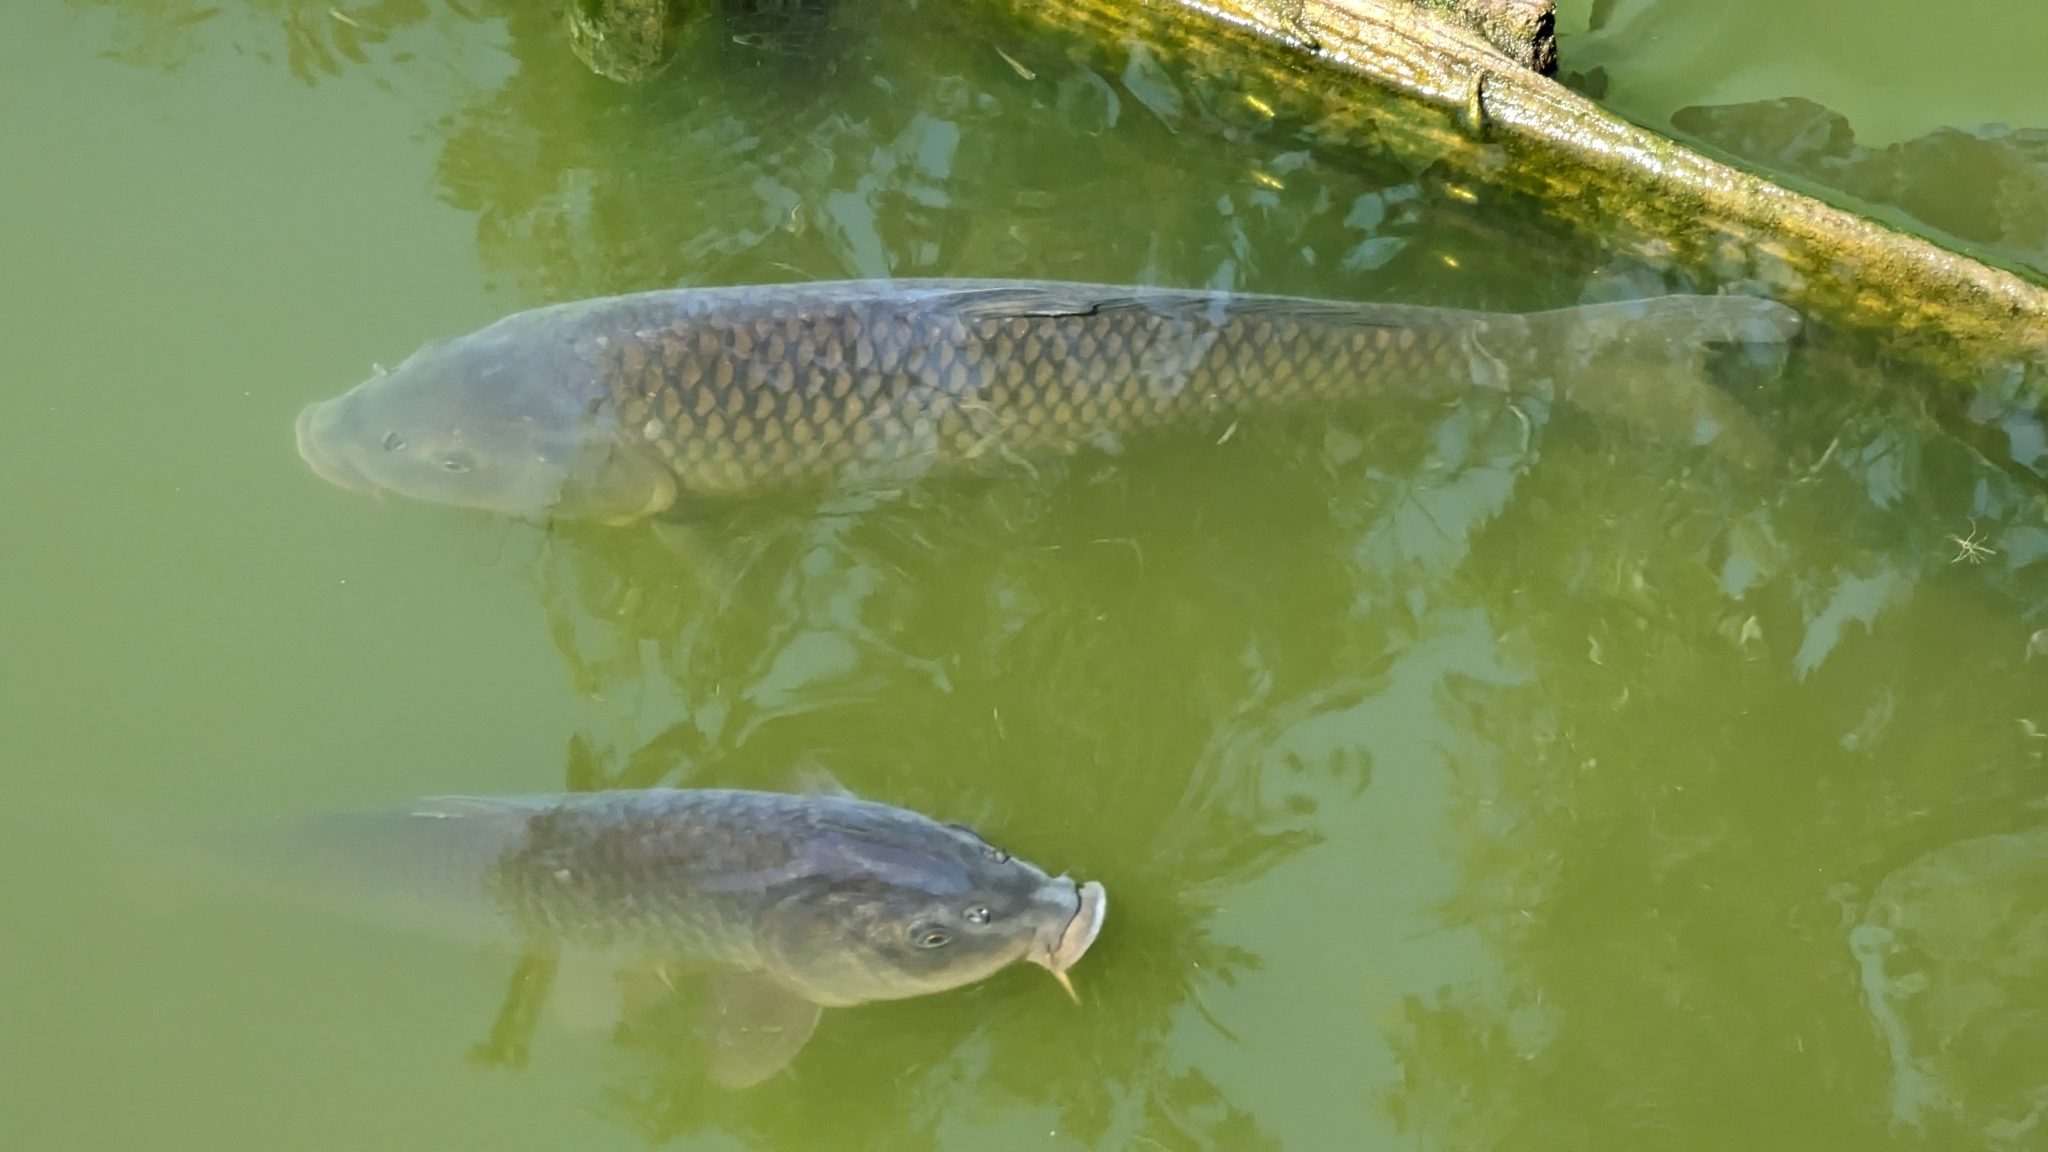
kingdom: Animalia
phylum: Chordata
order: Cypriniformes
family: Cyprinidae
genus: Cyprinus
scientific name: Cyprinus carpio
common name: Common carp
